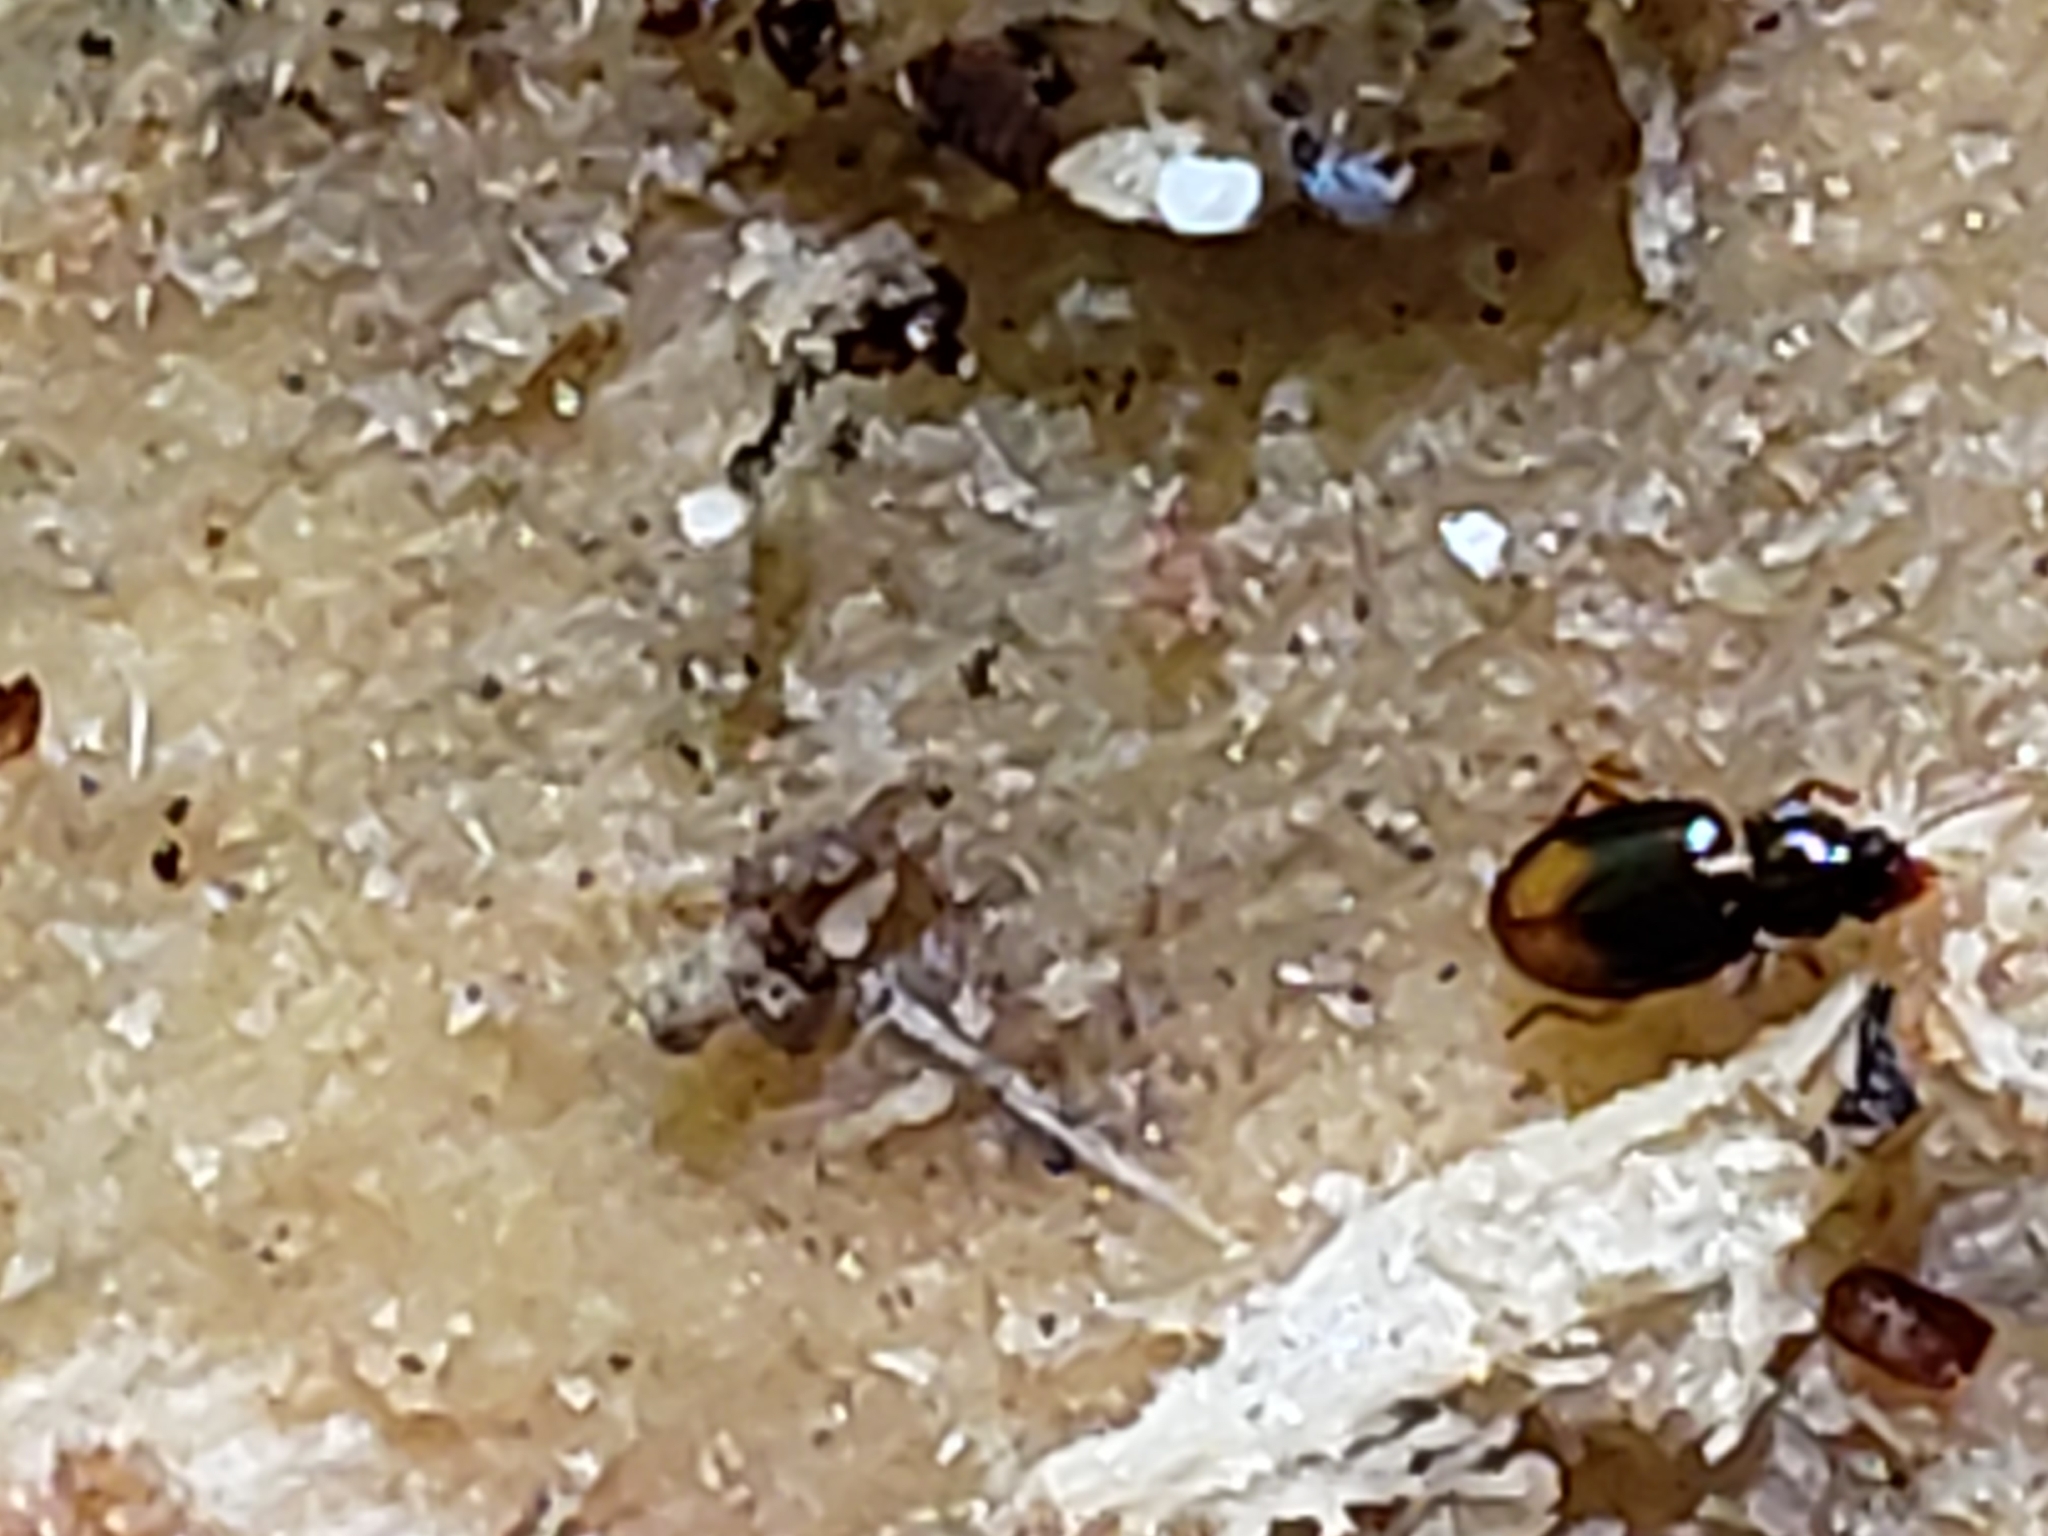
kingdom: Animalia
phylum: Arthropoda
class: Insecta
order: Coleoptera
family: Carabidae
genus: Mioptachys
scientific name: Mioptachys flavicauda
